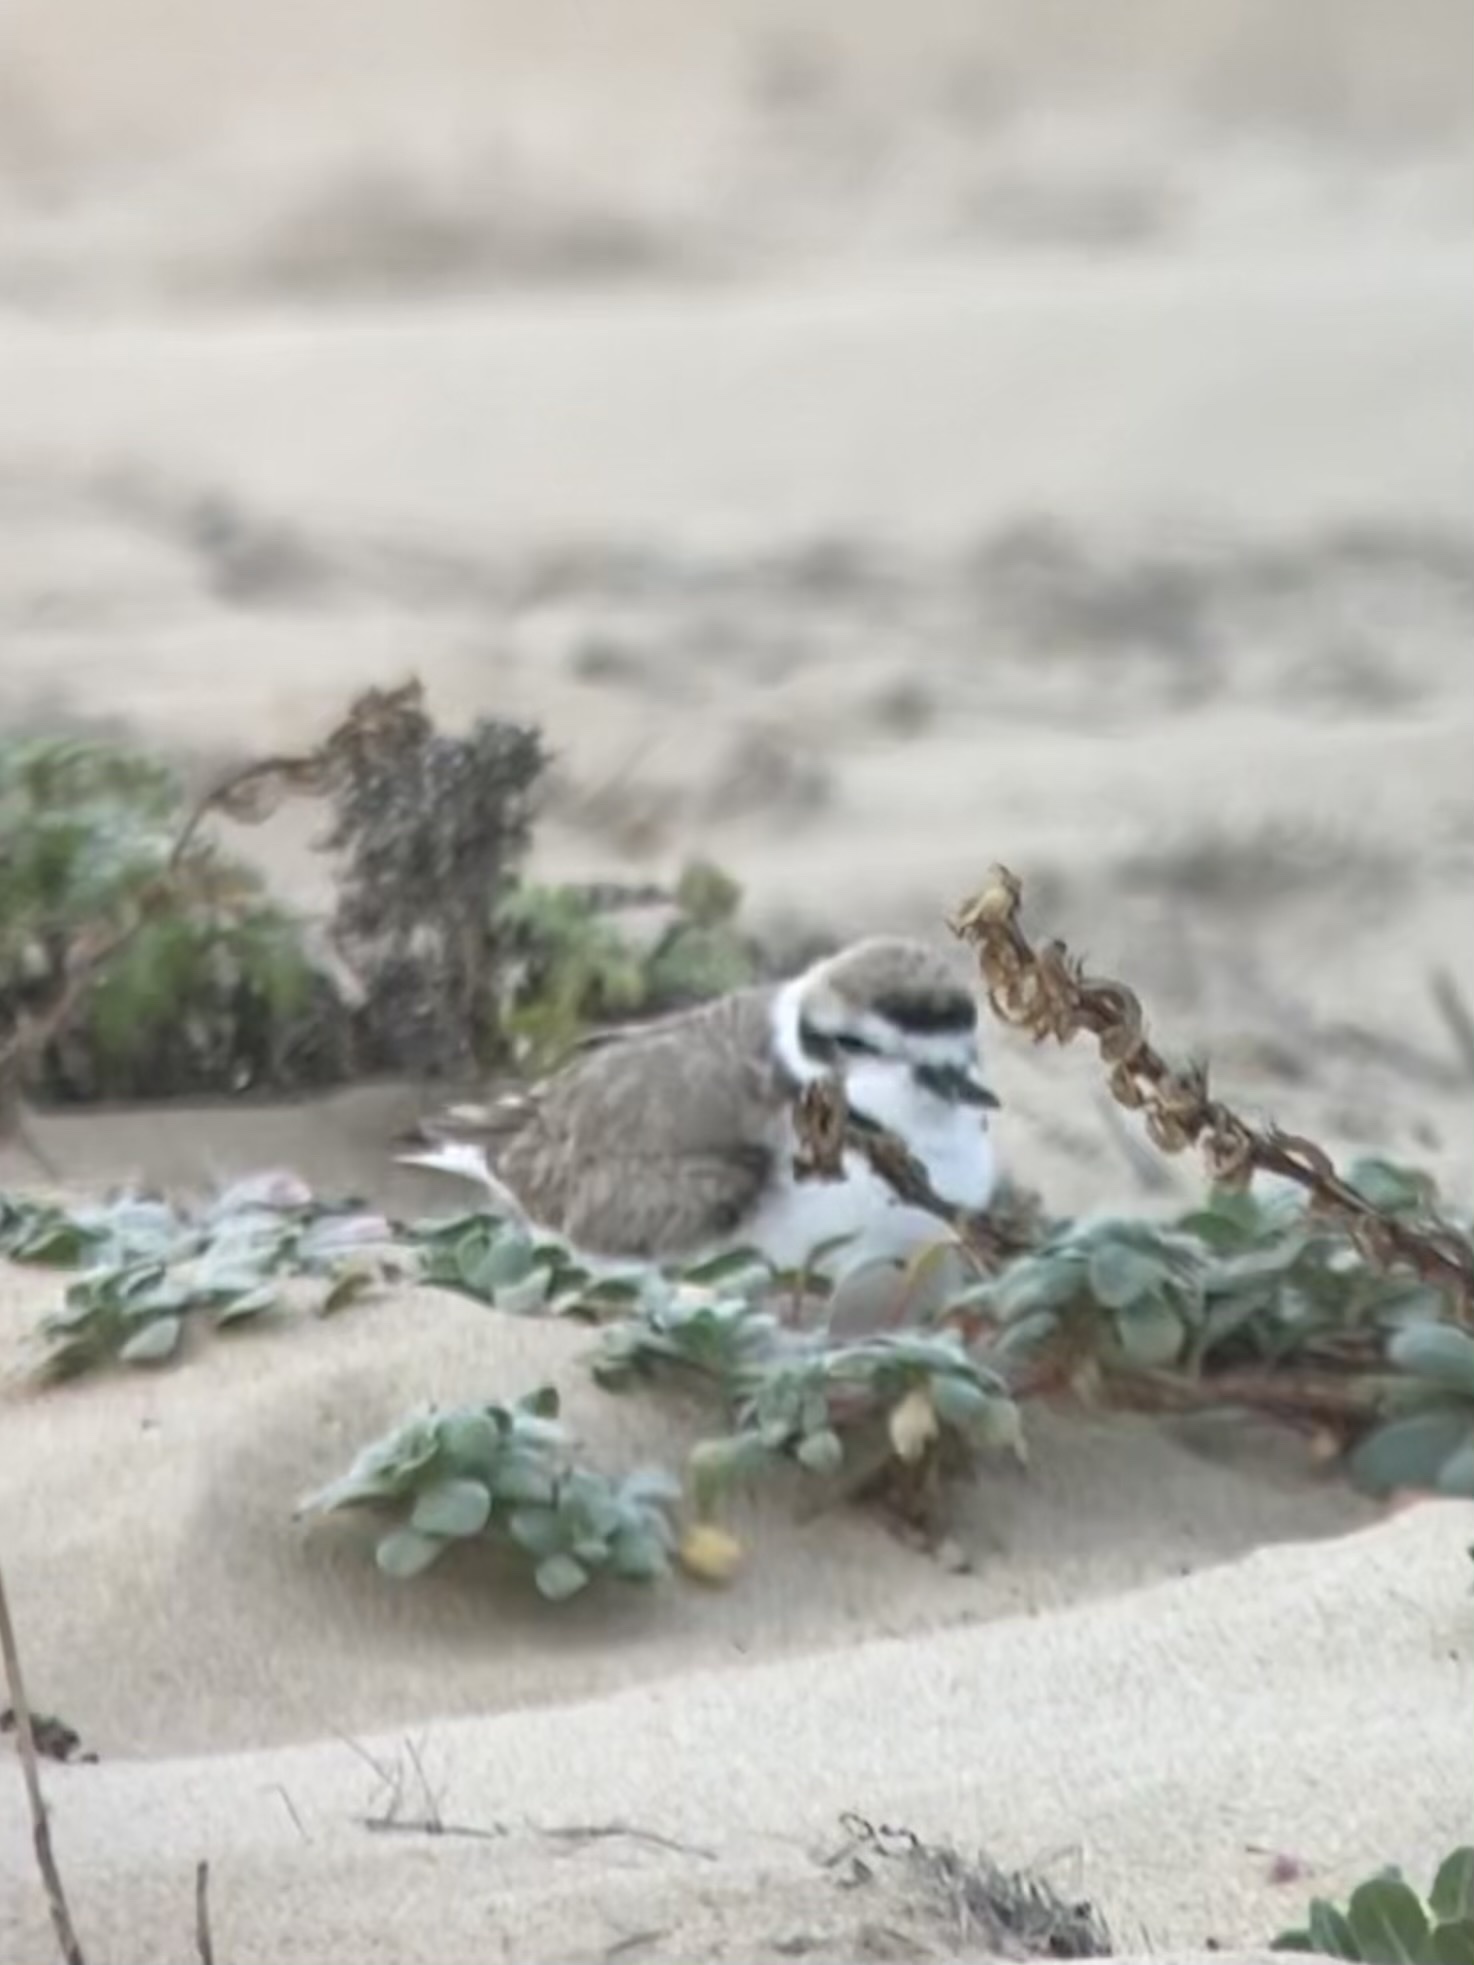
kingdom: Animalia
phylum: Chordata
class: Aves
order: Charadriiformes
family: Charadriidae
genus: Anarhynchus
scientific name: Anarhynchus
